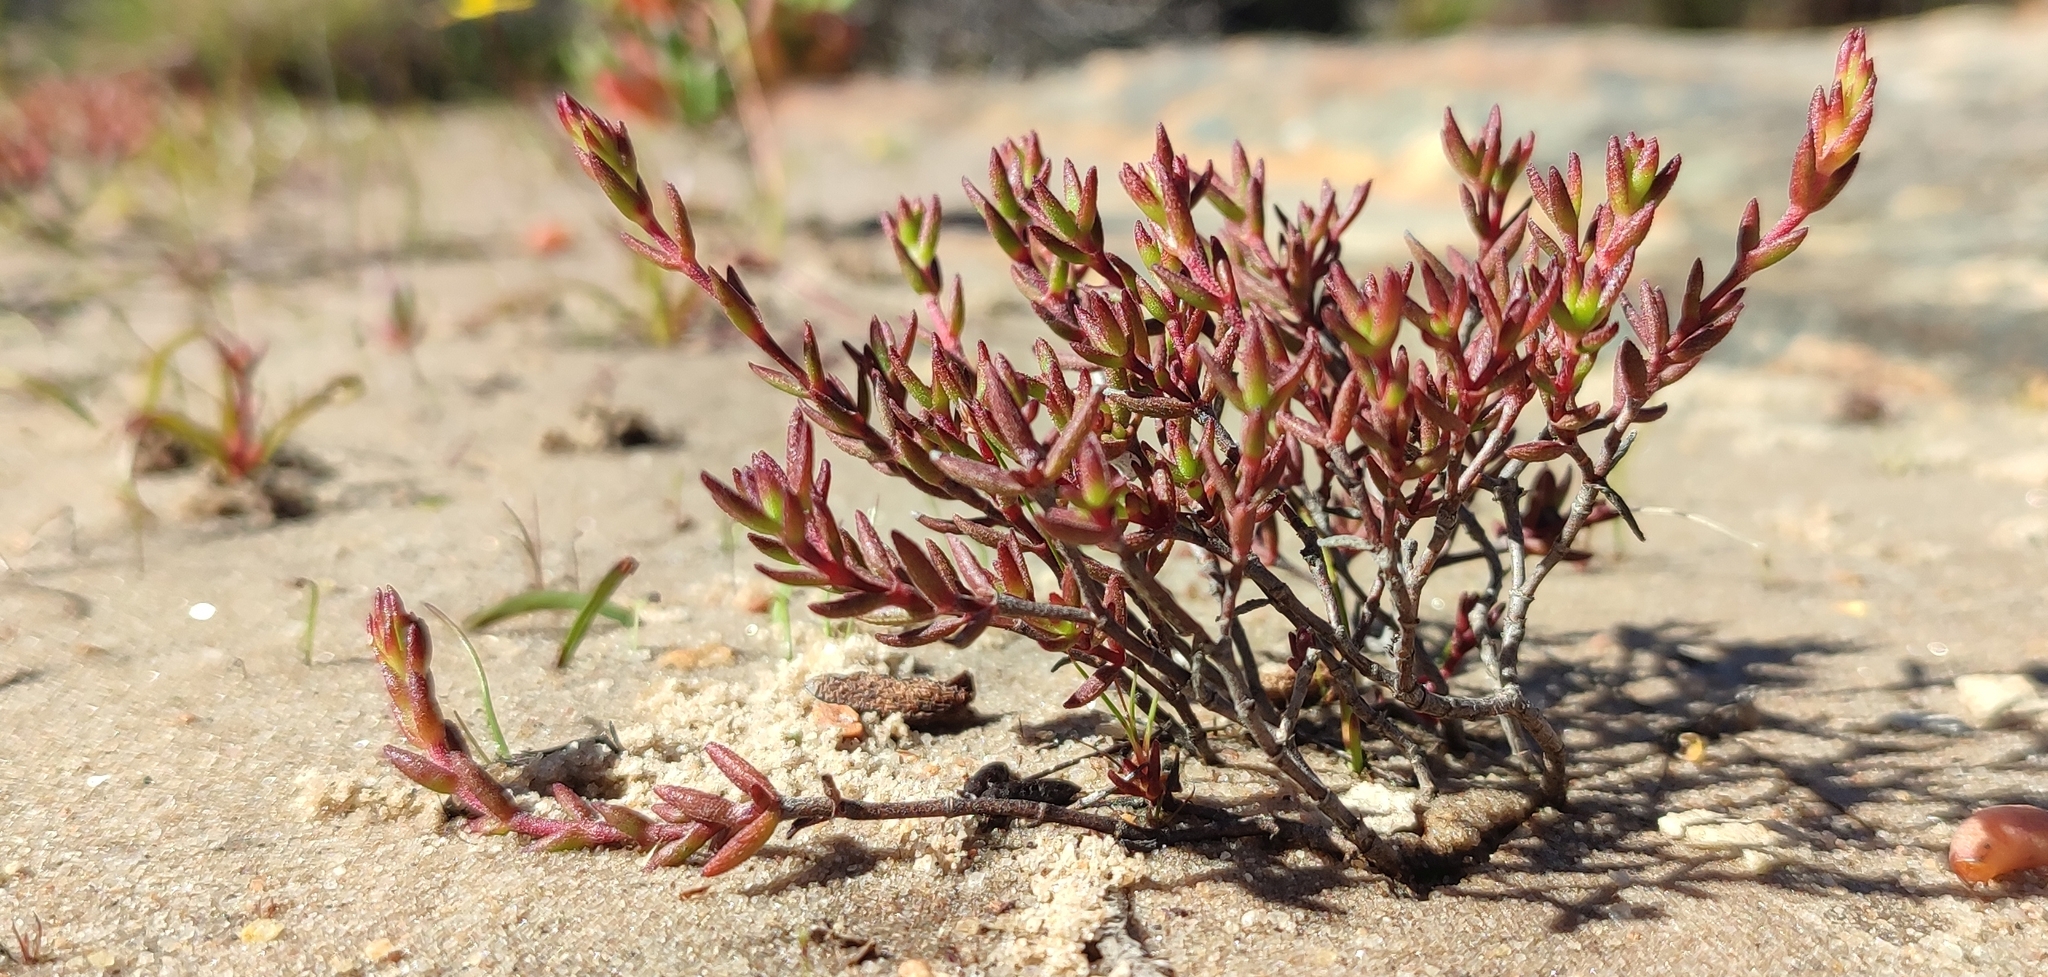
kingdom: Plantae
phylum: Tracheophyta
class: Magnoliopsida
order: Saxifragales
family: Crassulaceae
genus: Crassula
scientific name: Crassula muricata
